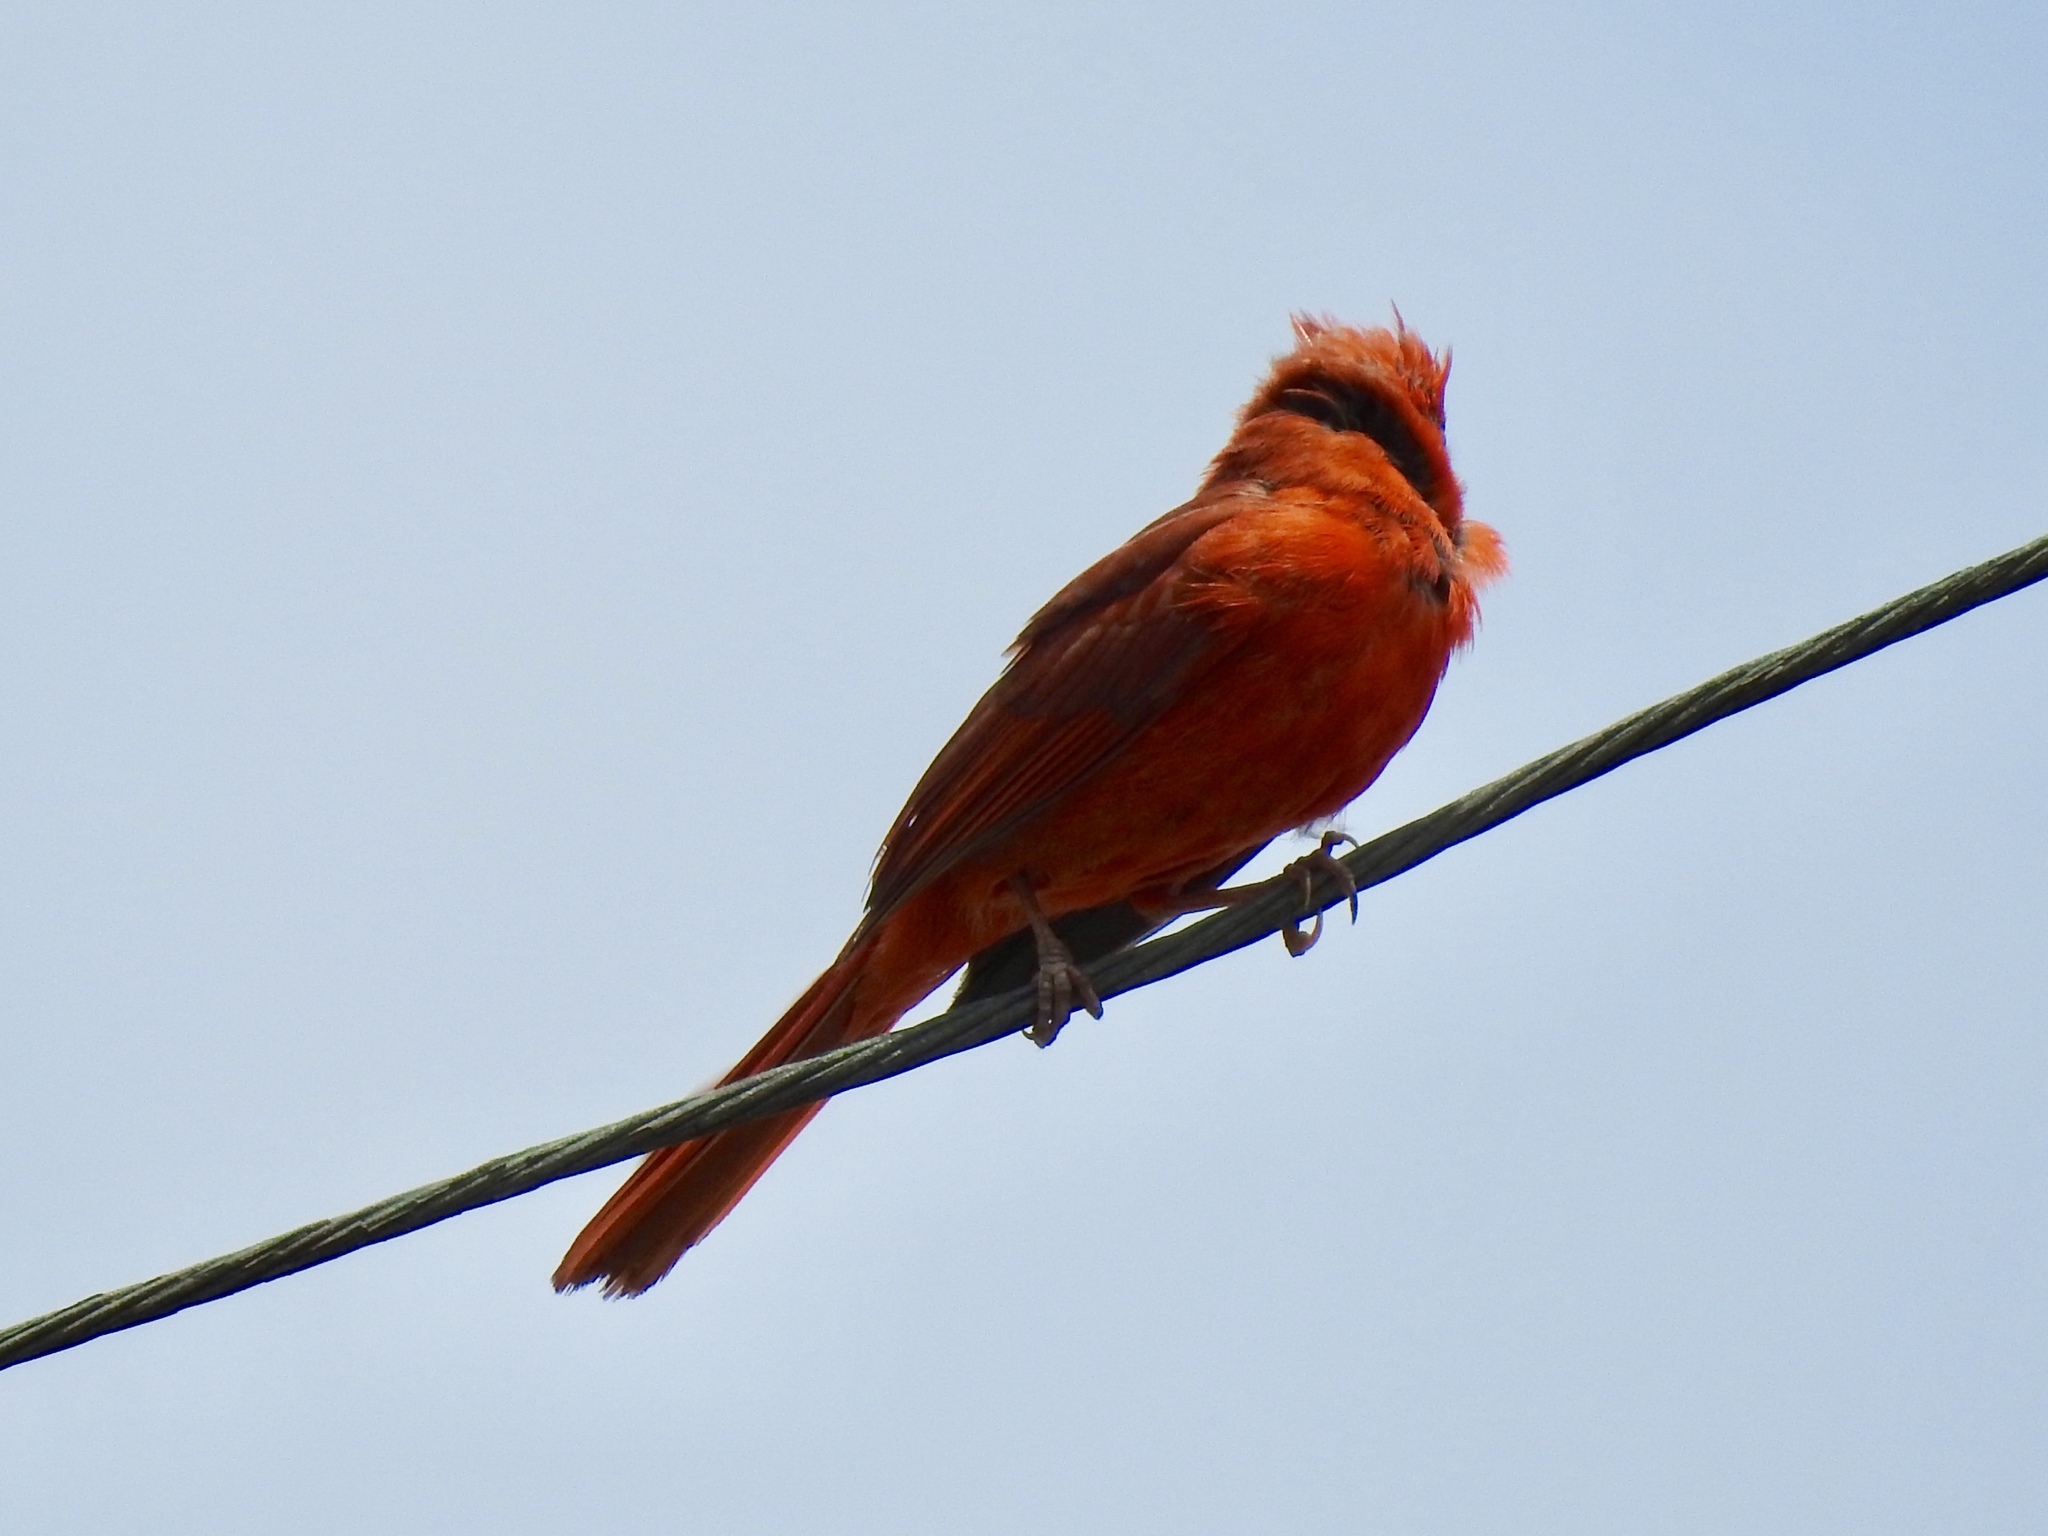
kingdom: Animalia
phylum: Chordata
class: Aves
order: Passeriformes
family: Cardinalidae
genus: Cardinalis
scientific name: Cardinalis cardinalis
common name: Northern cardinal
